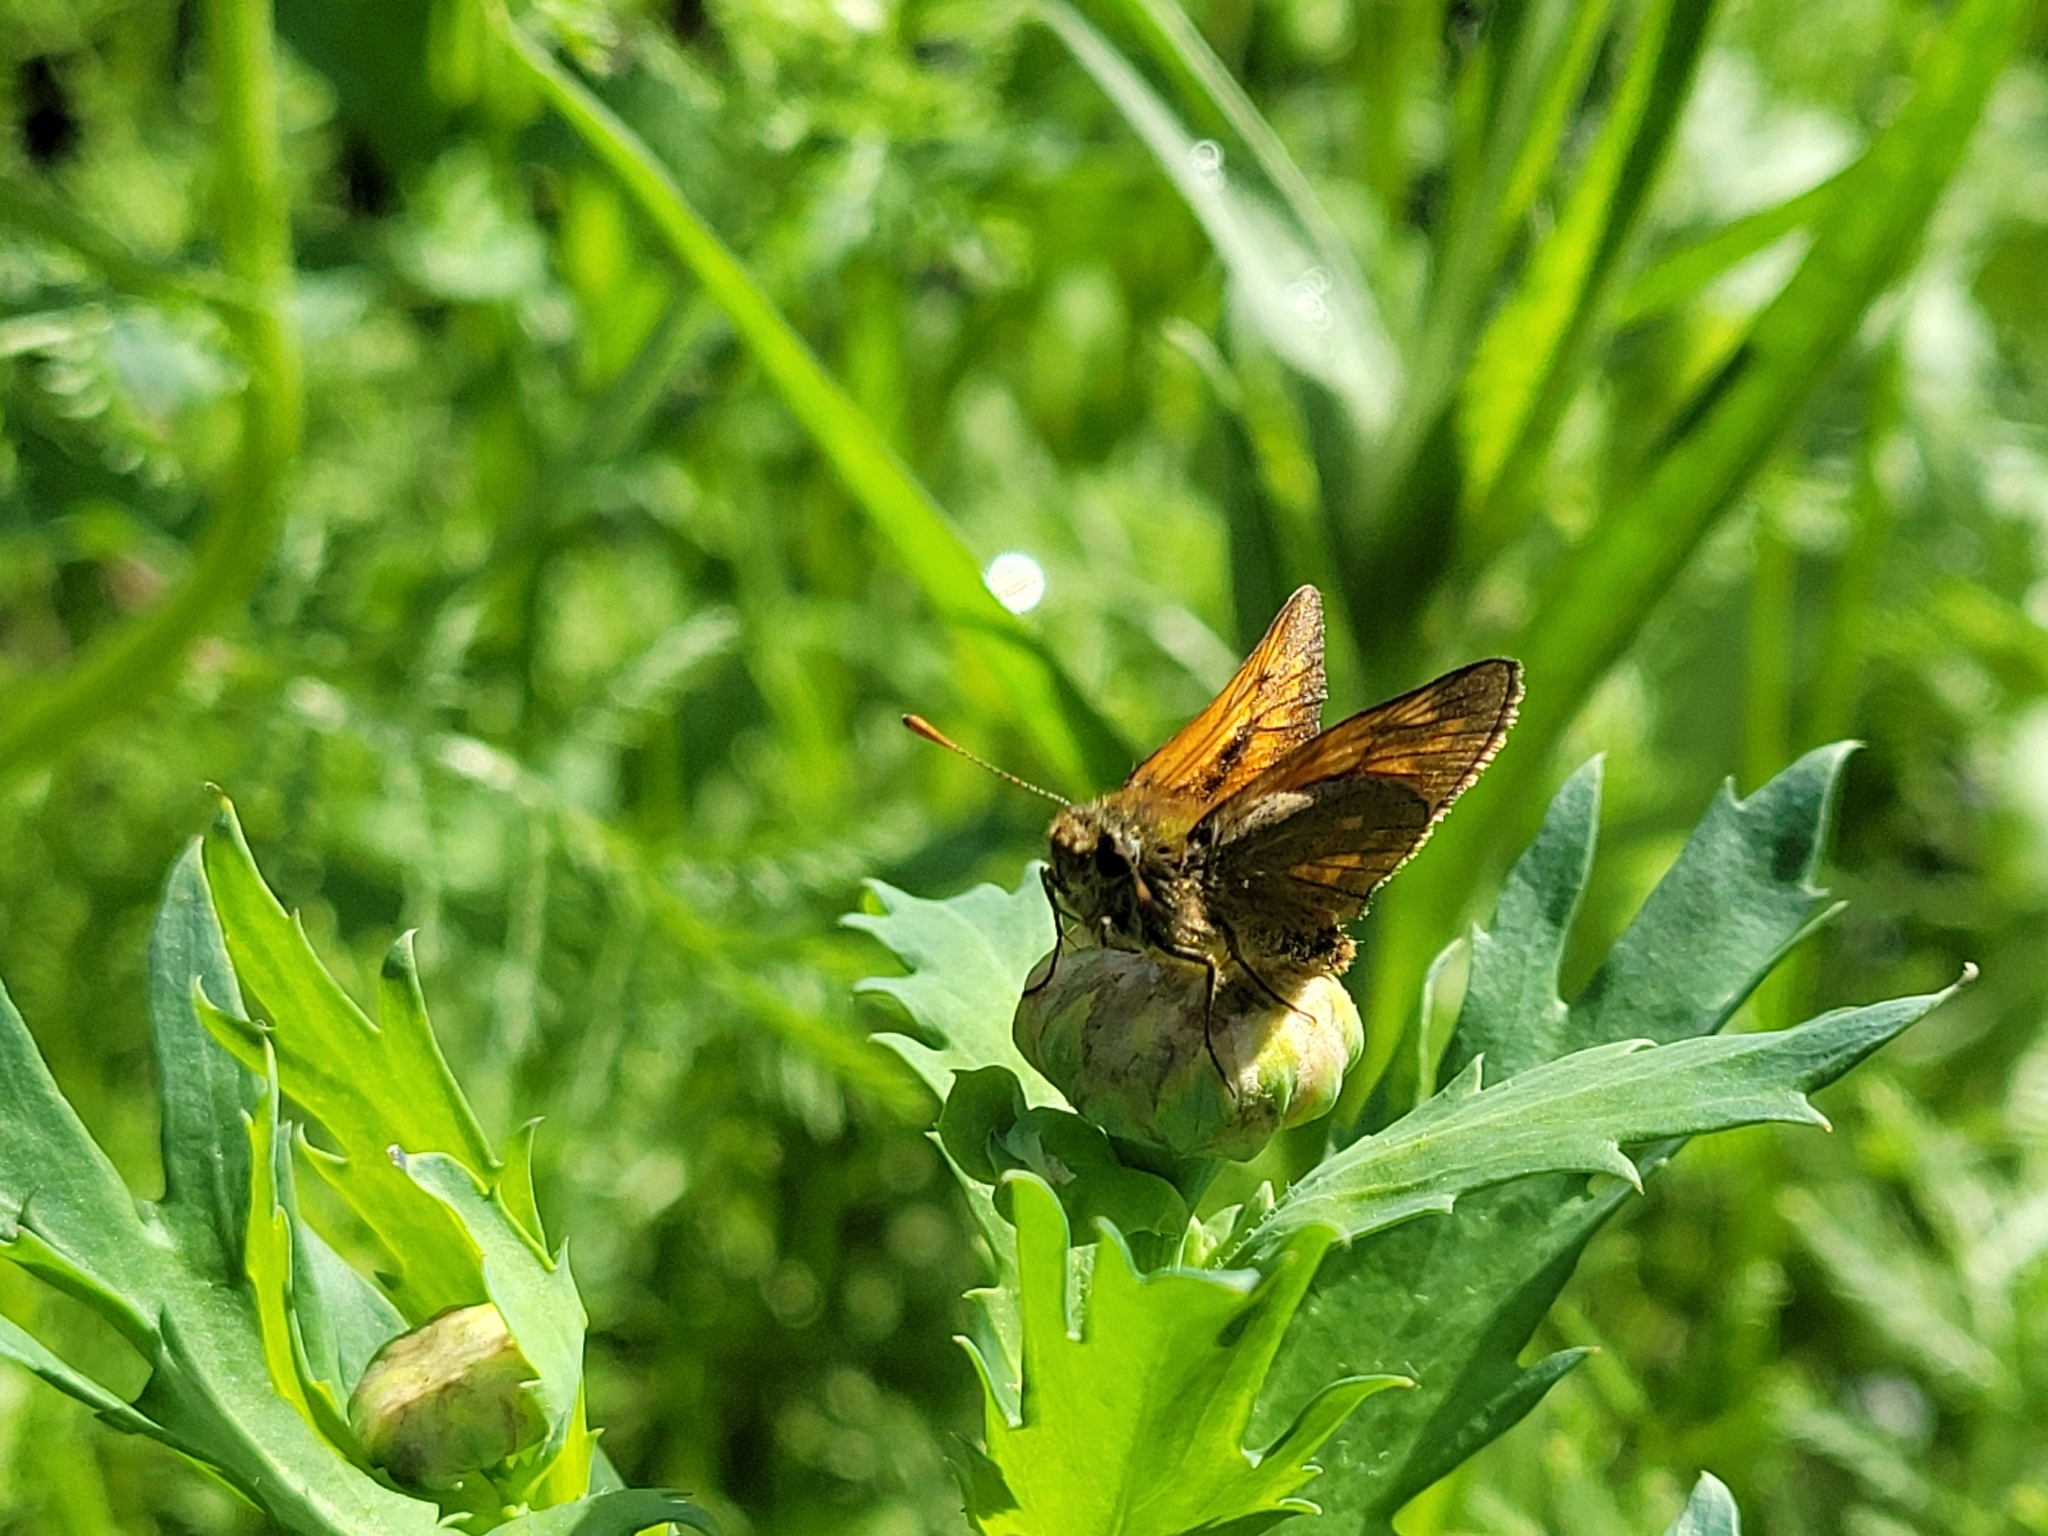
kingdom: Animalia
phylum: Arthropoda
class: Insecta
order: Lepidoptera
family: Hesperiidae
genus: Ochlodes
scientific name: Ochlodes venata
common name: Large skipper
